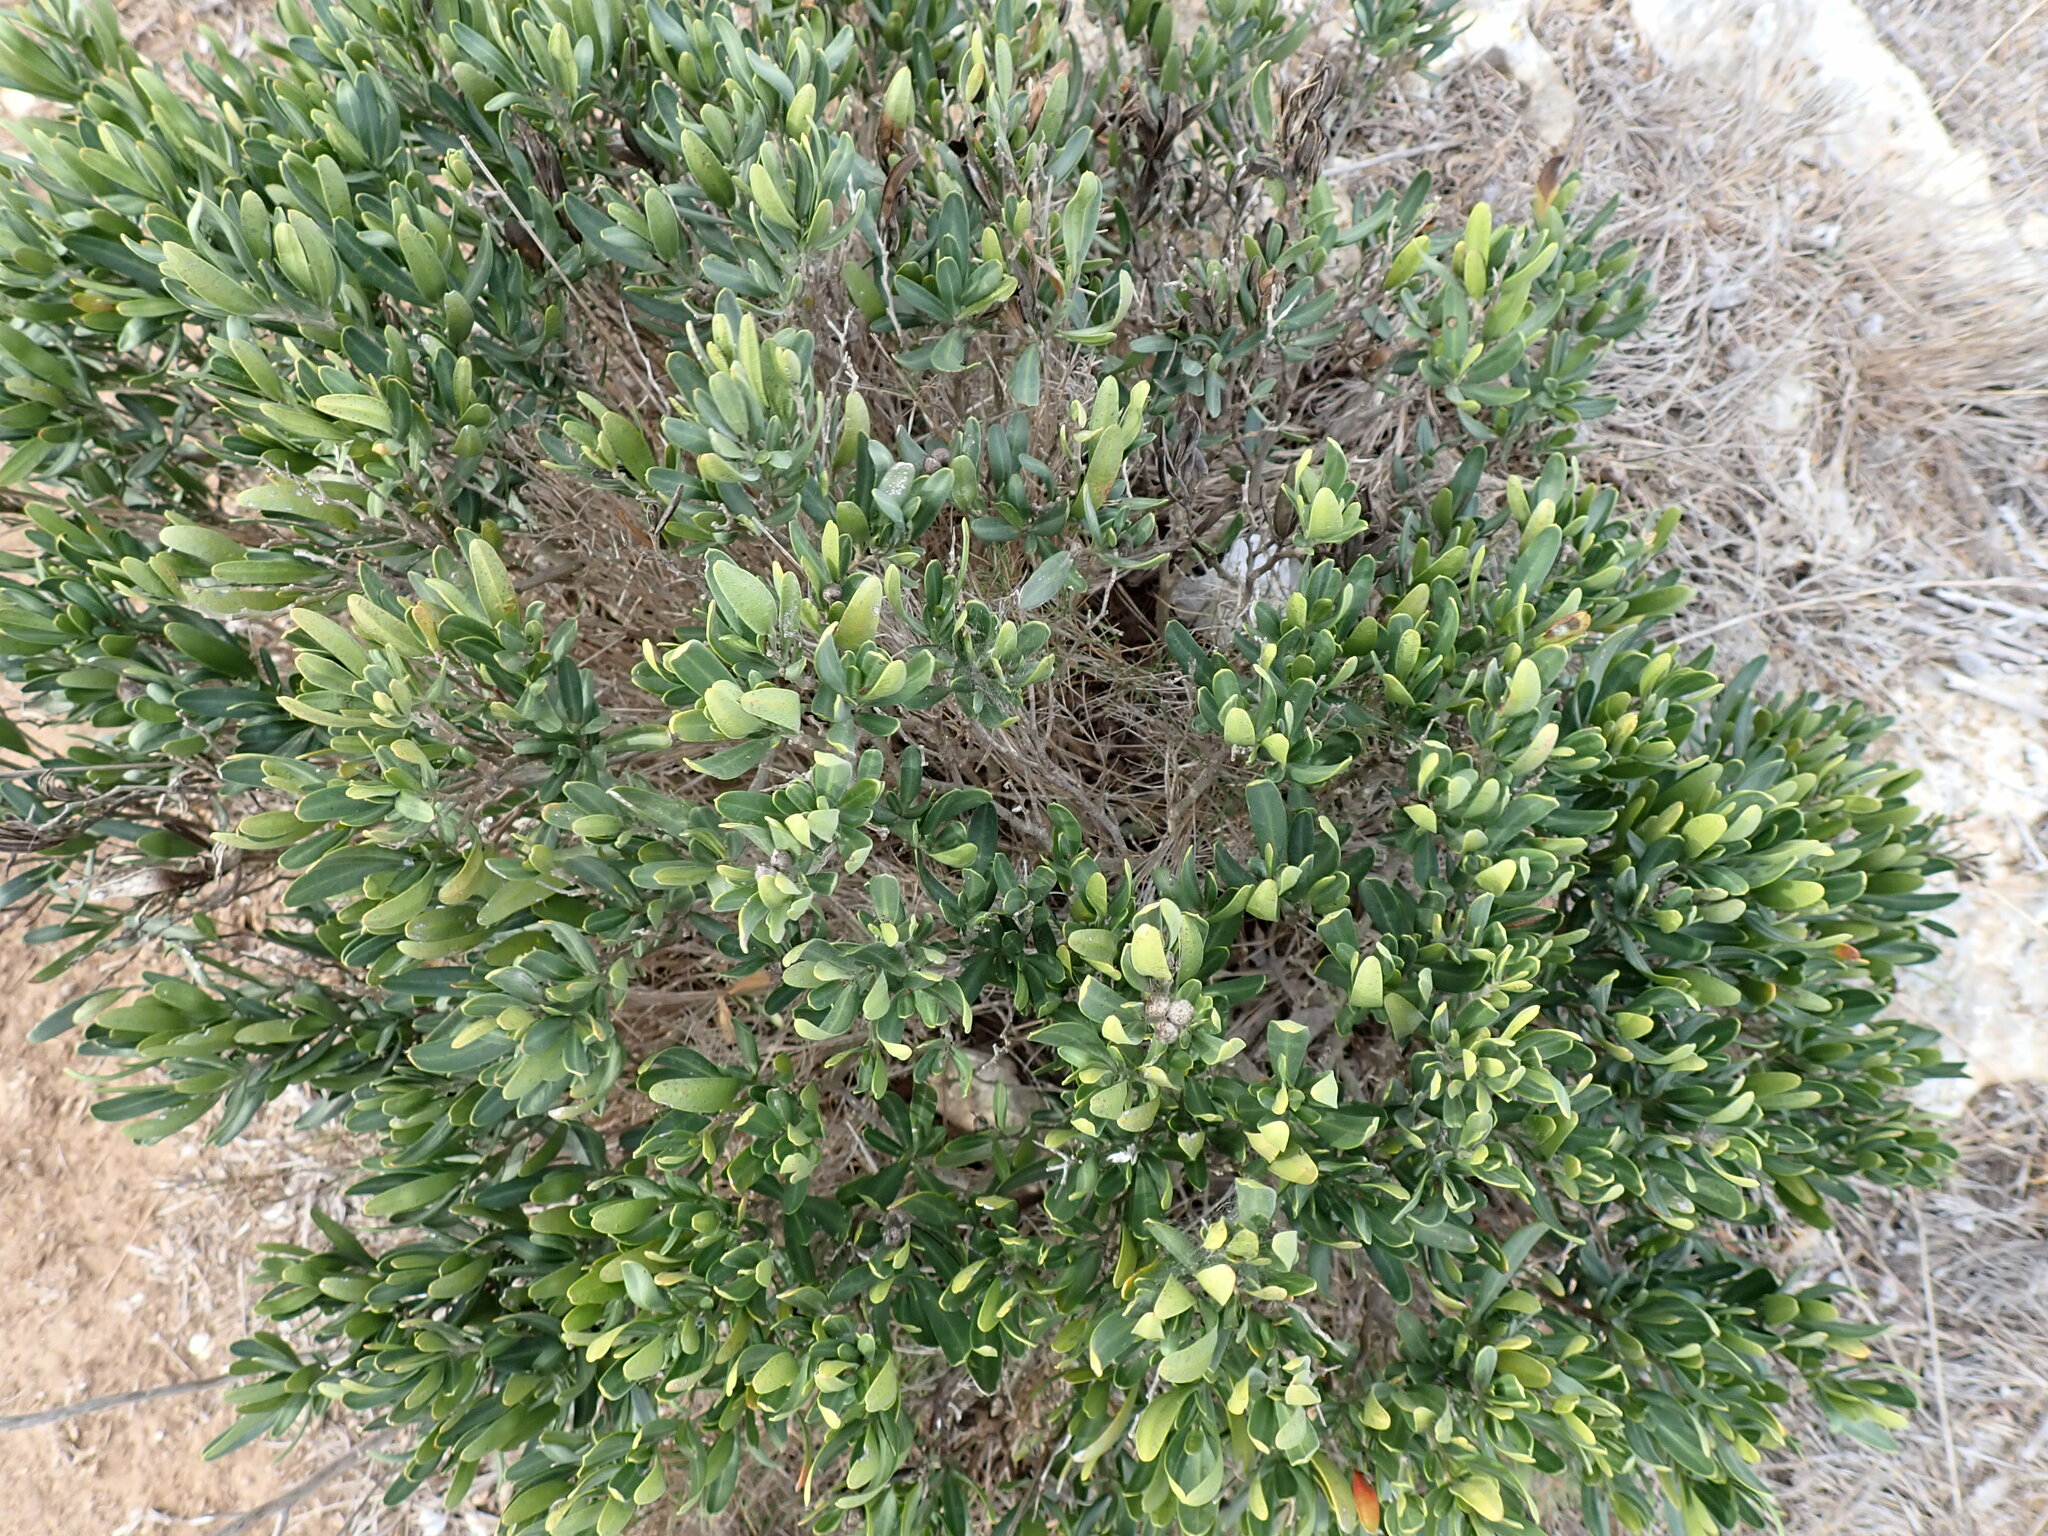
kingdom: Plantae
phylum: Tracheophyta
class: Magnoliopsida
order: Sapindales
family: Rutaceae
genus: Cneorum
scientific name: Cneorum tricoccon
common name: Spurge olive
